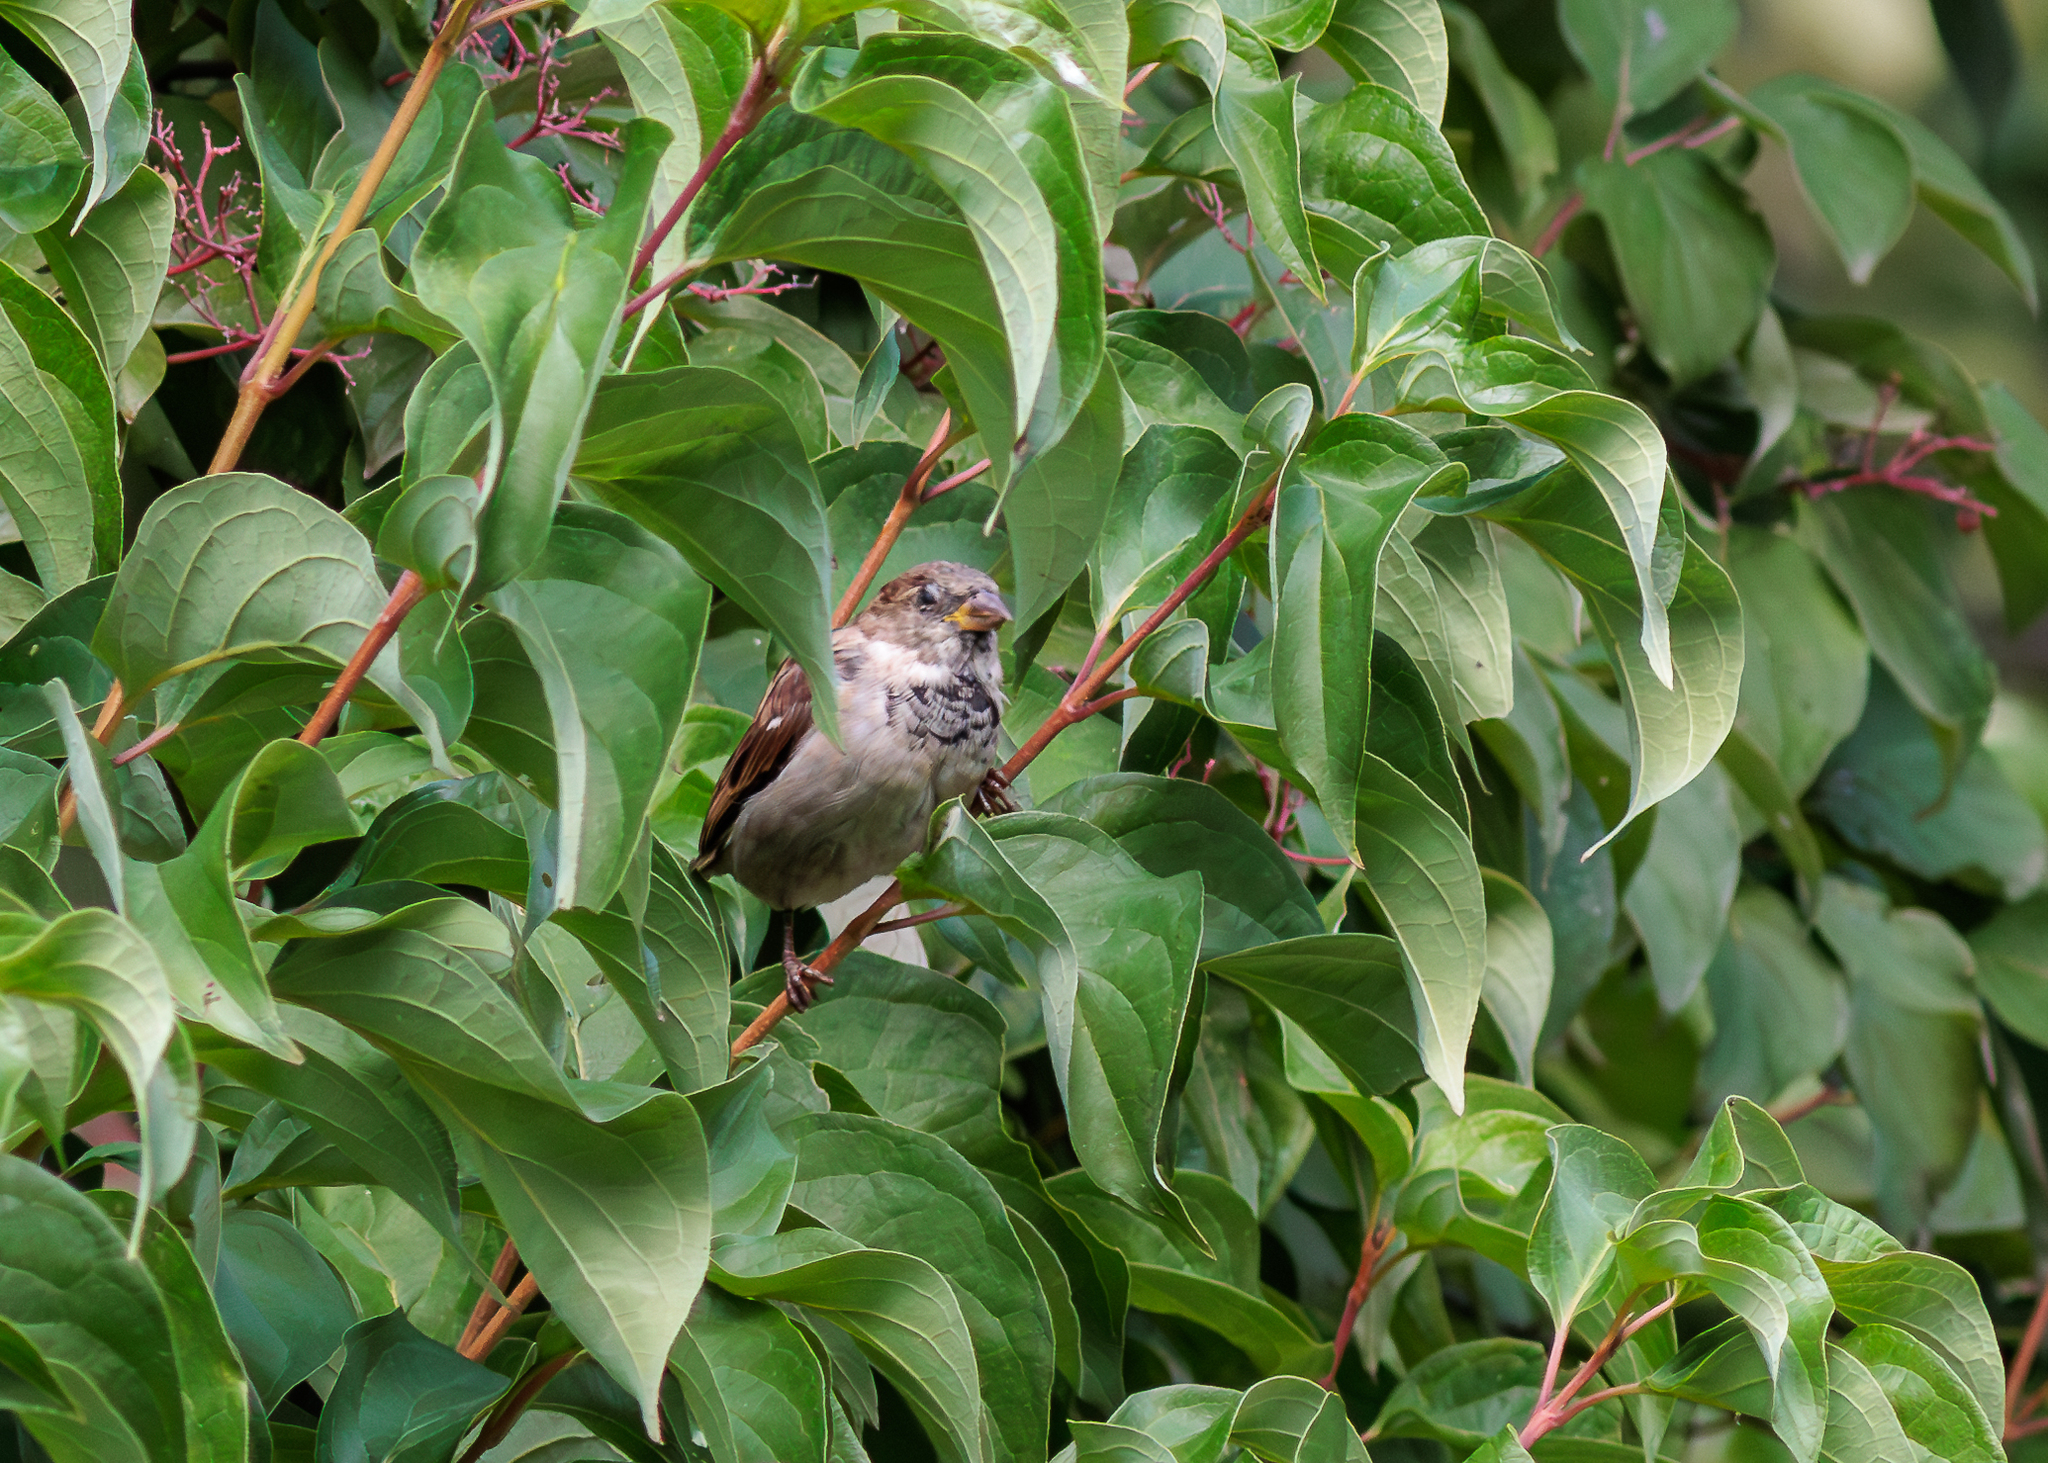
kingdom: Animalia
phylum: Chordata
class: Aves
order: Passeriformes
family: Passeridae
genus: Passer
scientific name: Passer domesticus
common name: House sparrow
